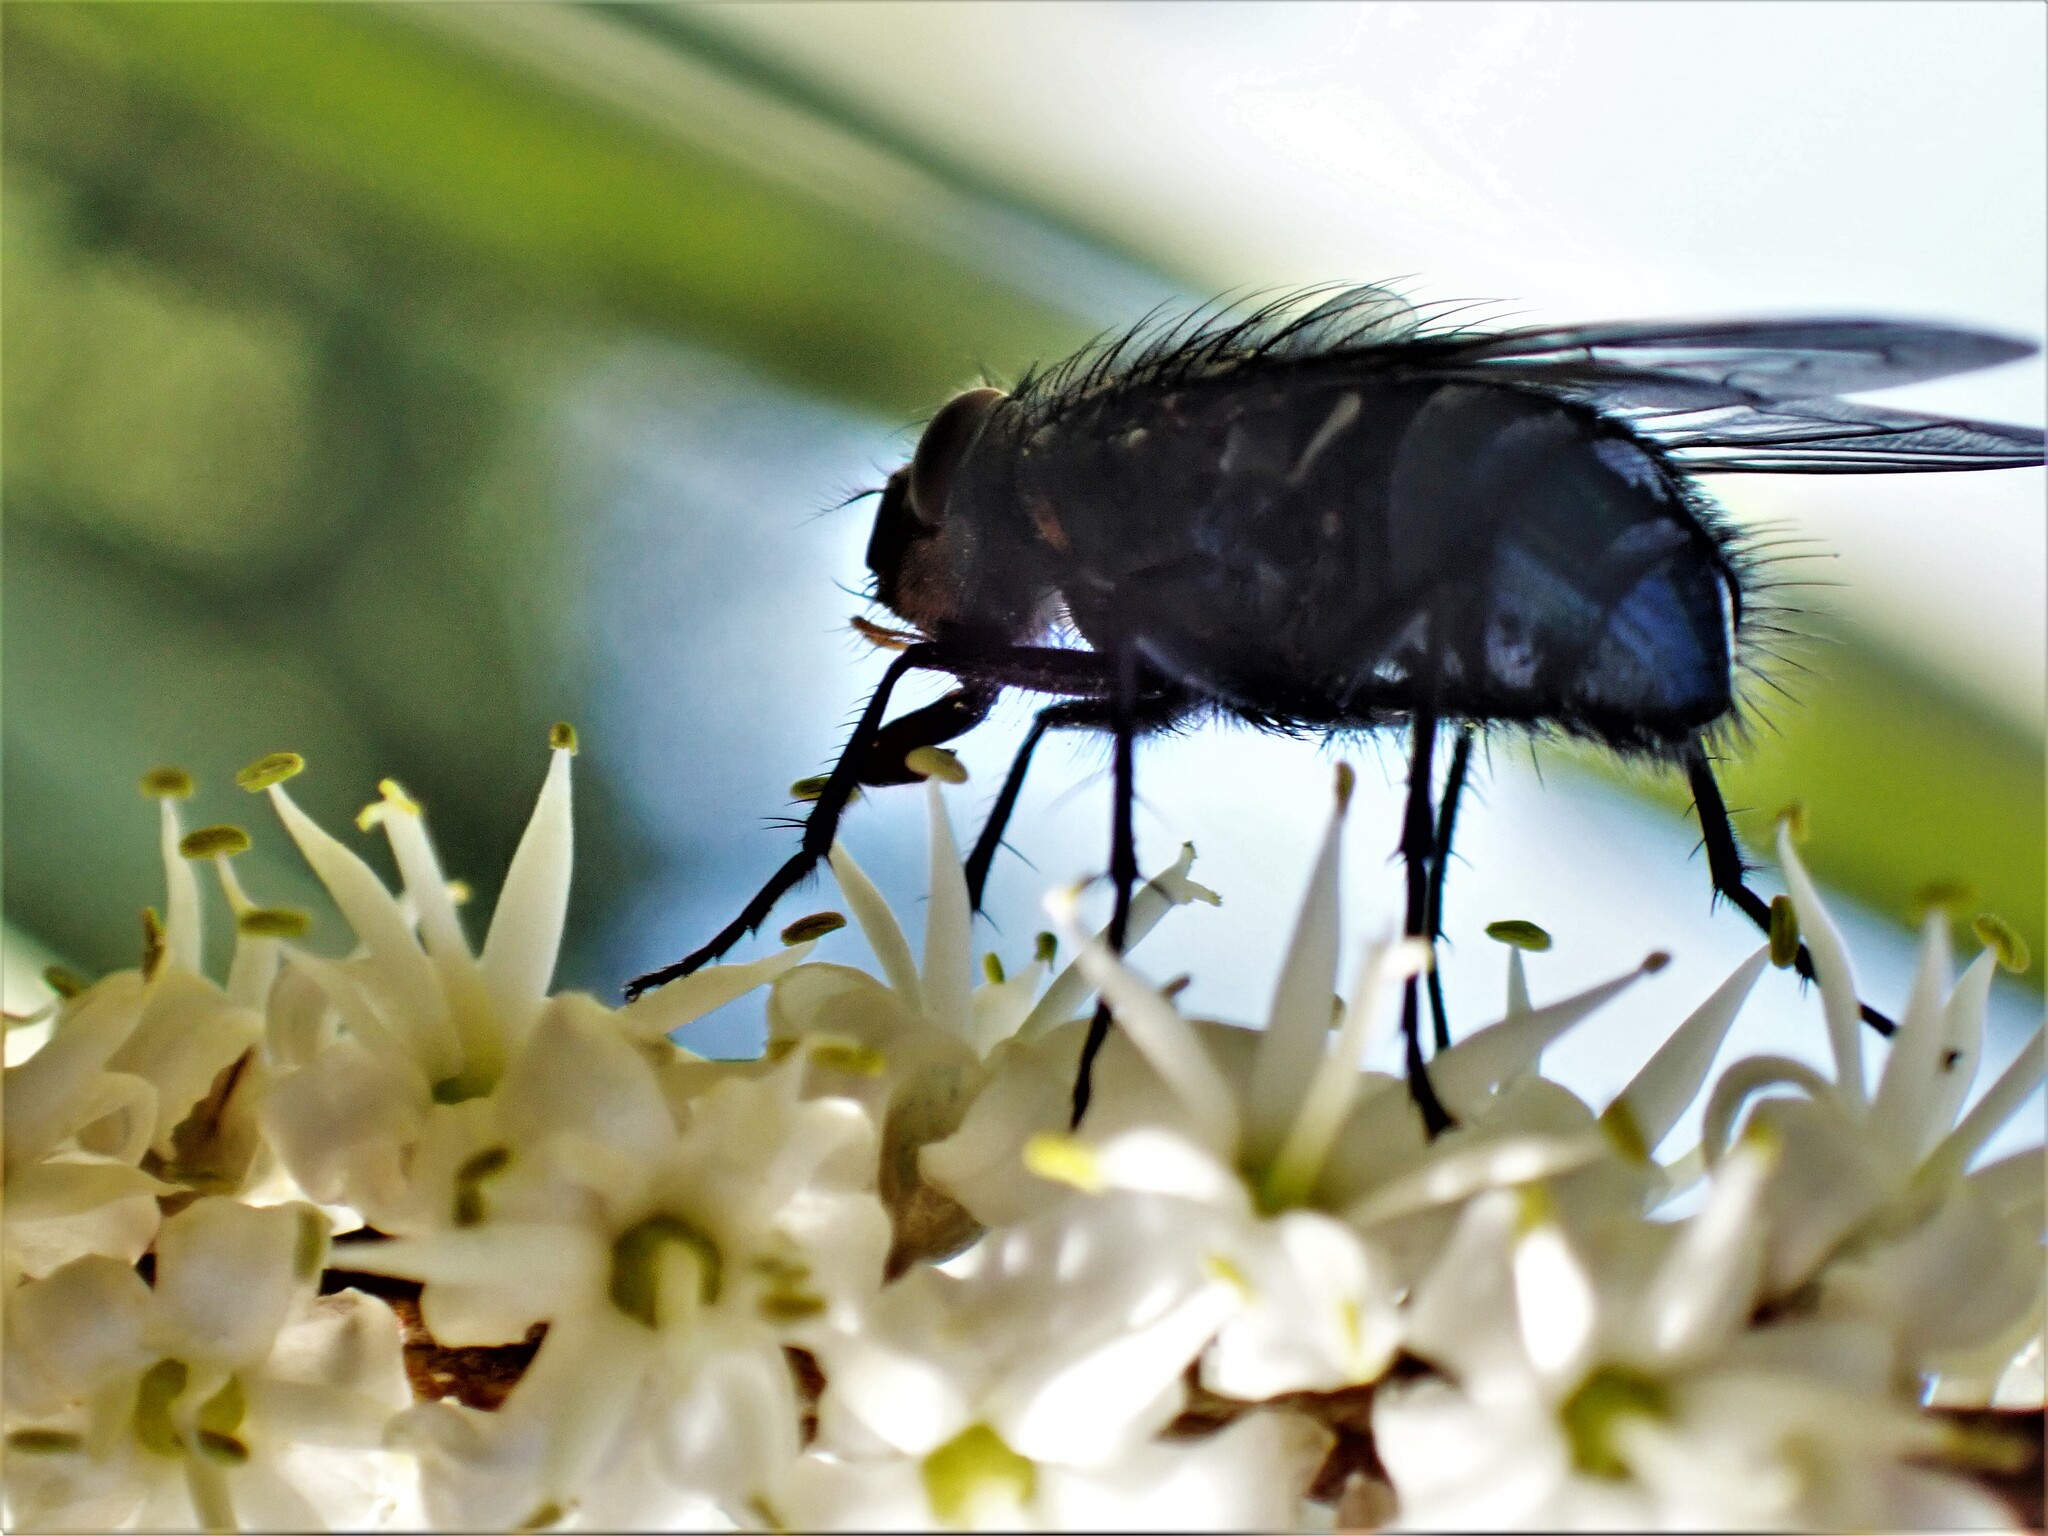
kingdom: Animalia
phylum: Arthropoda
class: Insecta
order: Diptera
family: Calliphoridae
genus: Calliphora
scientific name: Calliphora vicina
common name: Common blow flie
